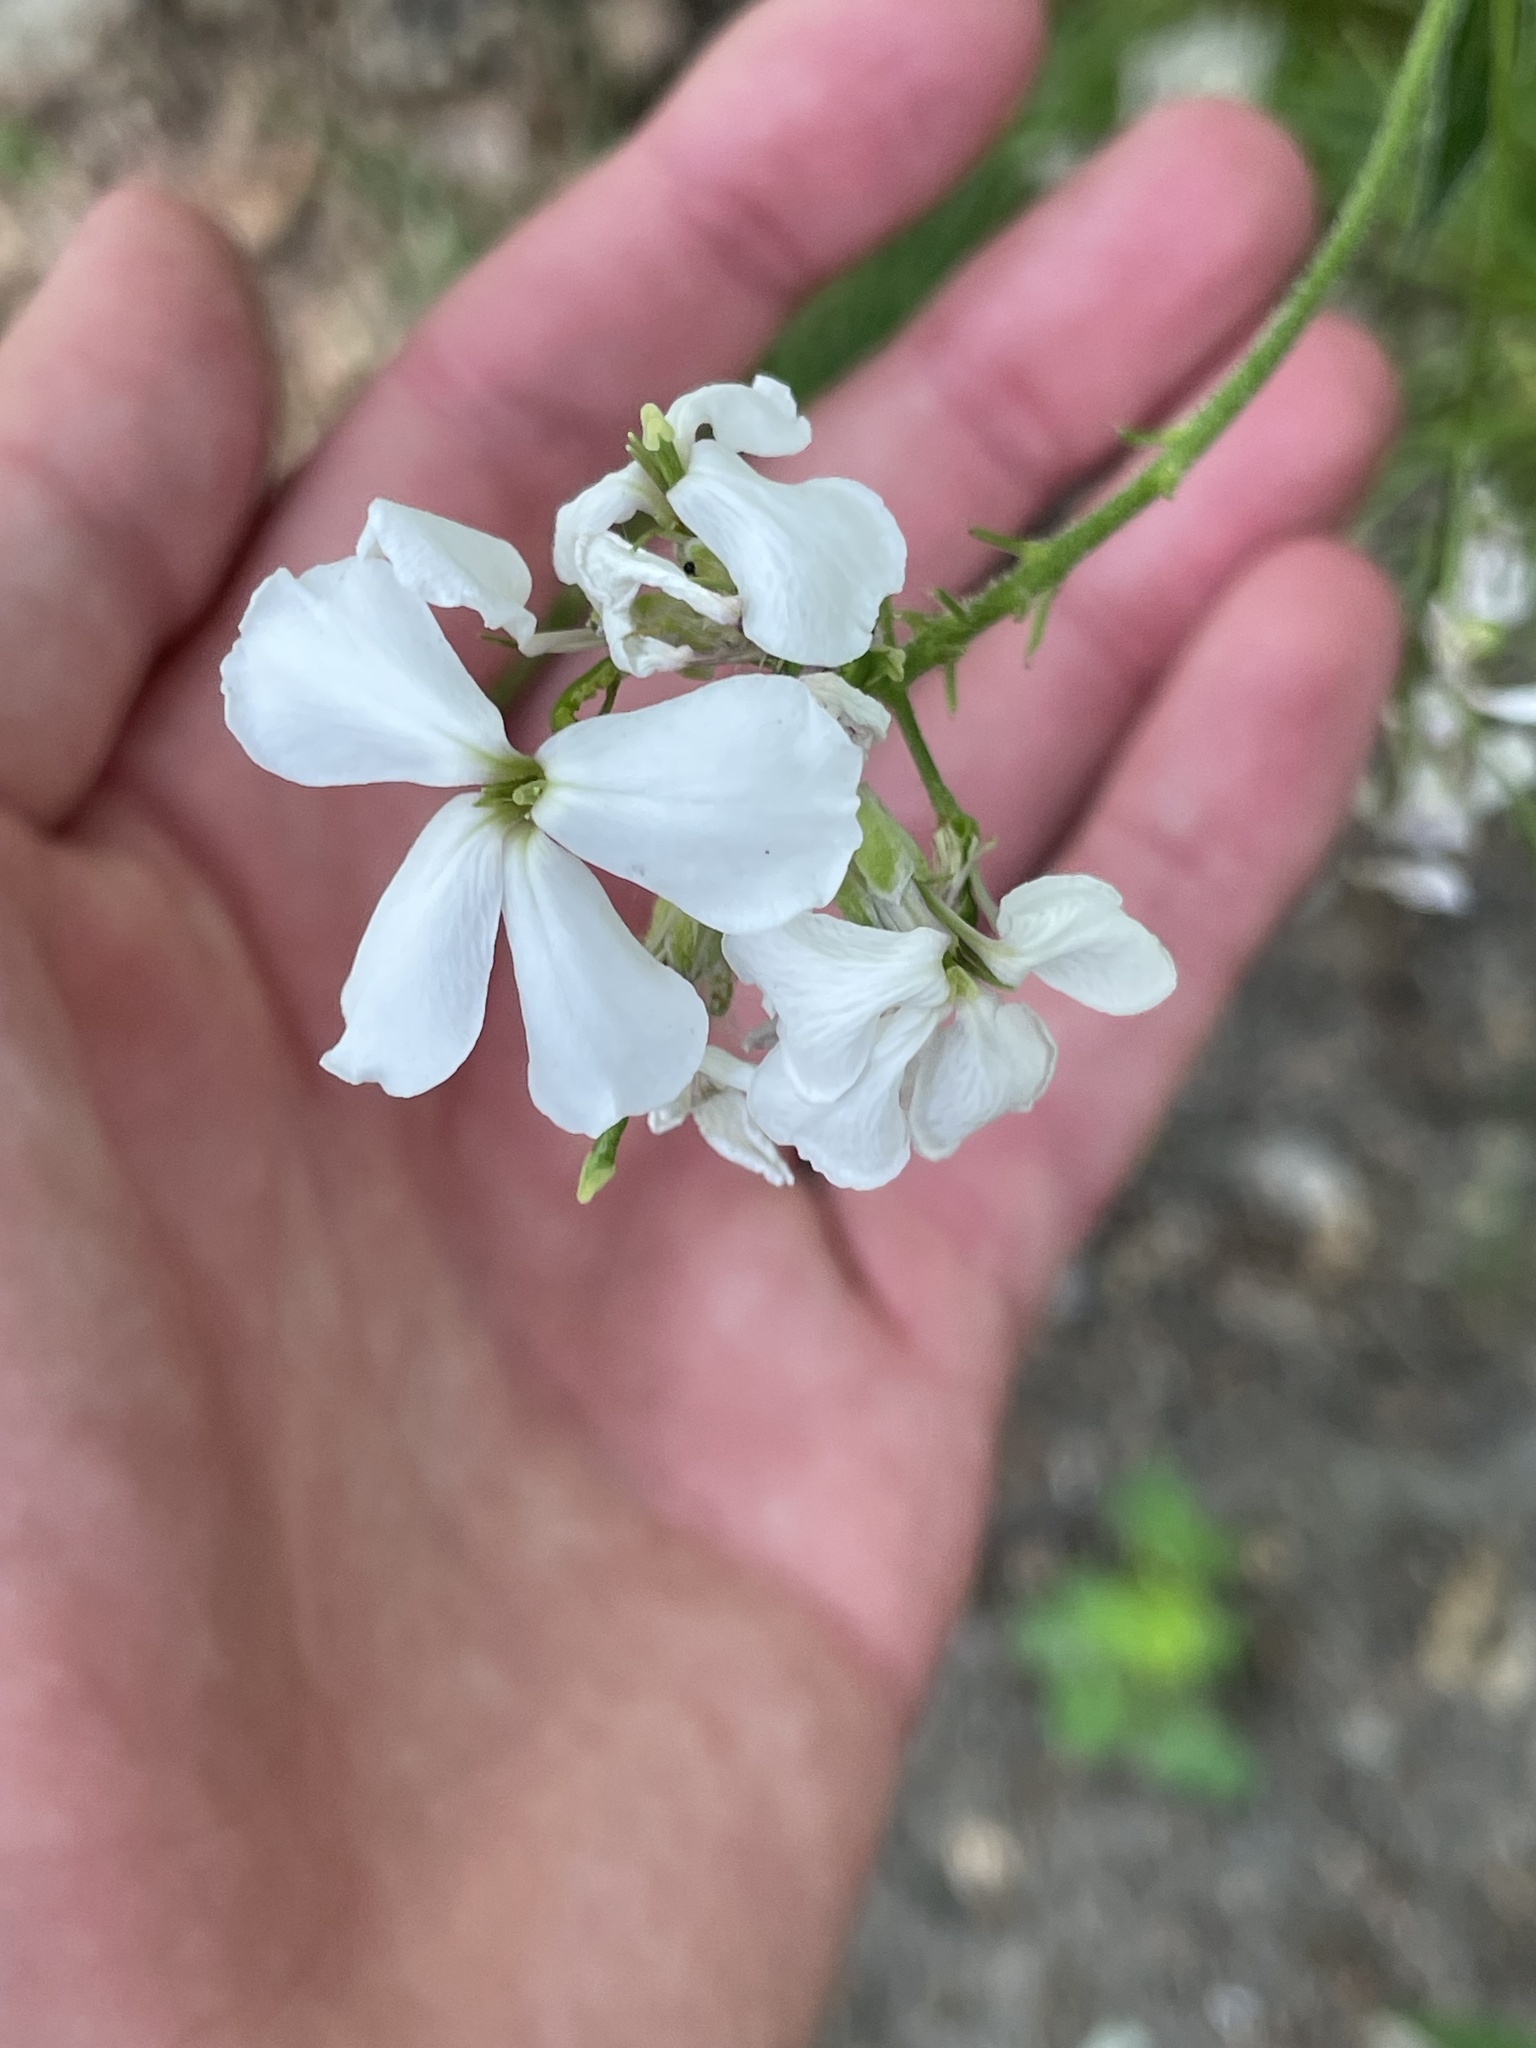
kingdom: Plantae
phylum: Tracheophyta
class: Magnoliopsida
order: Brassicales
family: Brassicaceae
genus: Hesperis
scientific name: Hesperis matronalis
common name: Dame's-violet
